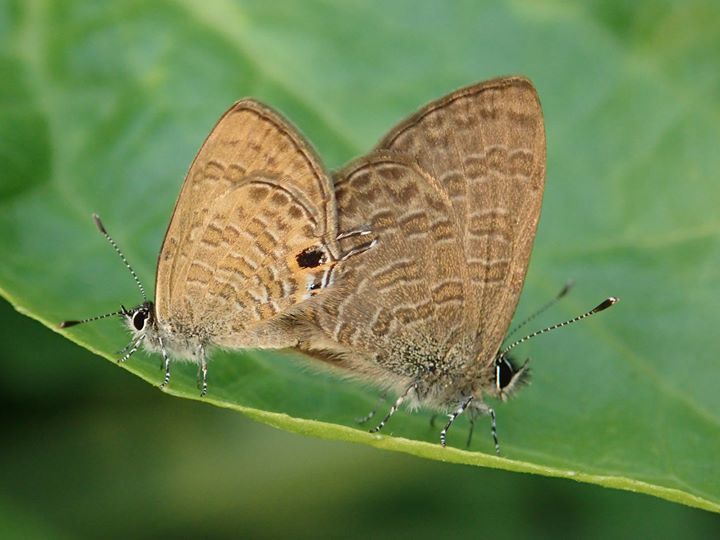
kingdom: Animalia
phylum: Arthropoda
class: Insecta
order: Lepidoptera
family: Lycaenidae
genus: Prosotas
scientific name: Prosotas nora
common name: Common line blue
